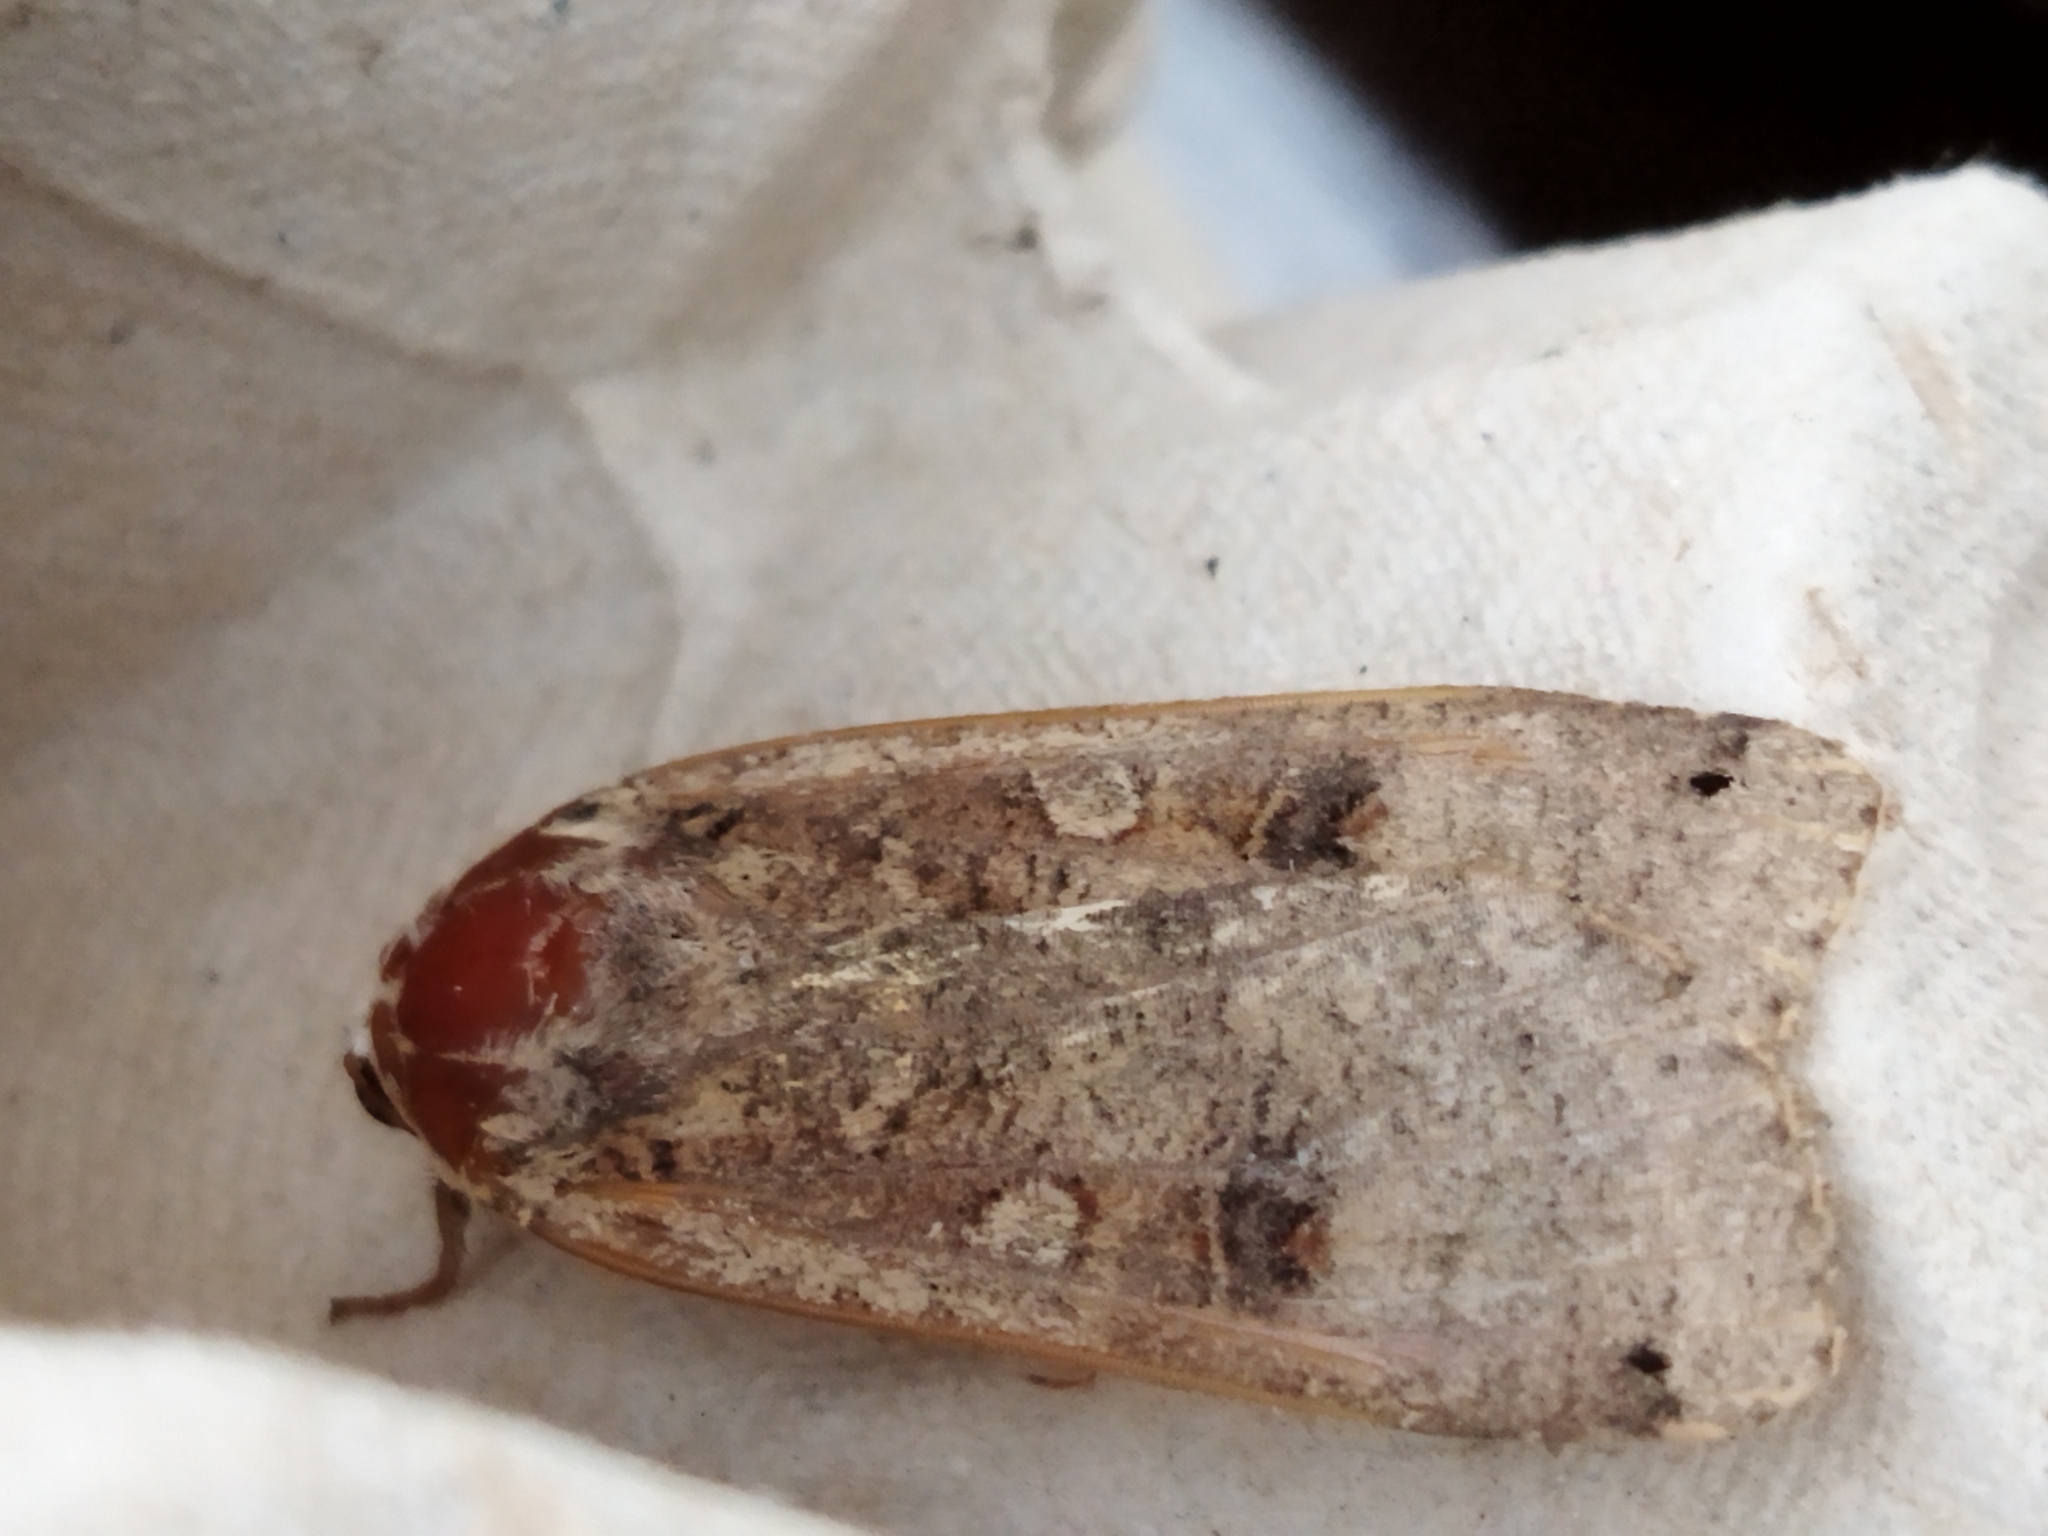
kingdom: Animalia
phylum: Arthropoda
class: Insecta
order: Lepidoptera
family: Noctuidae
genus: Noctua
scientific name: Noctua pronuba
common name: Large yellow underwing
